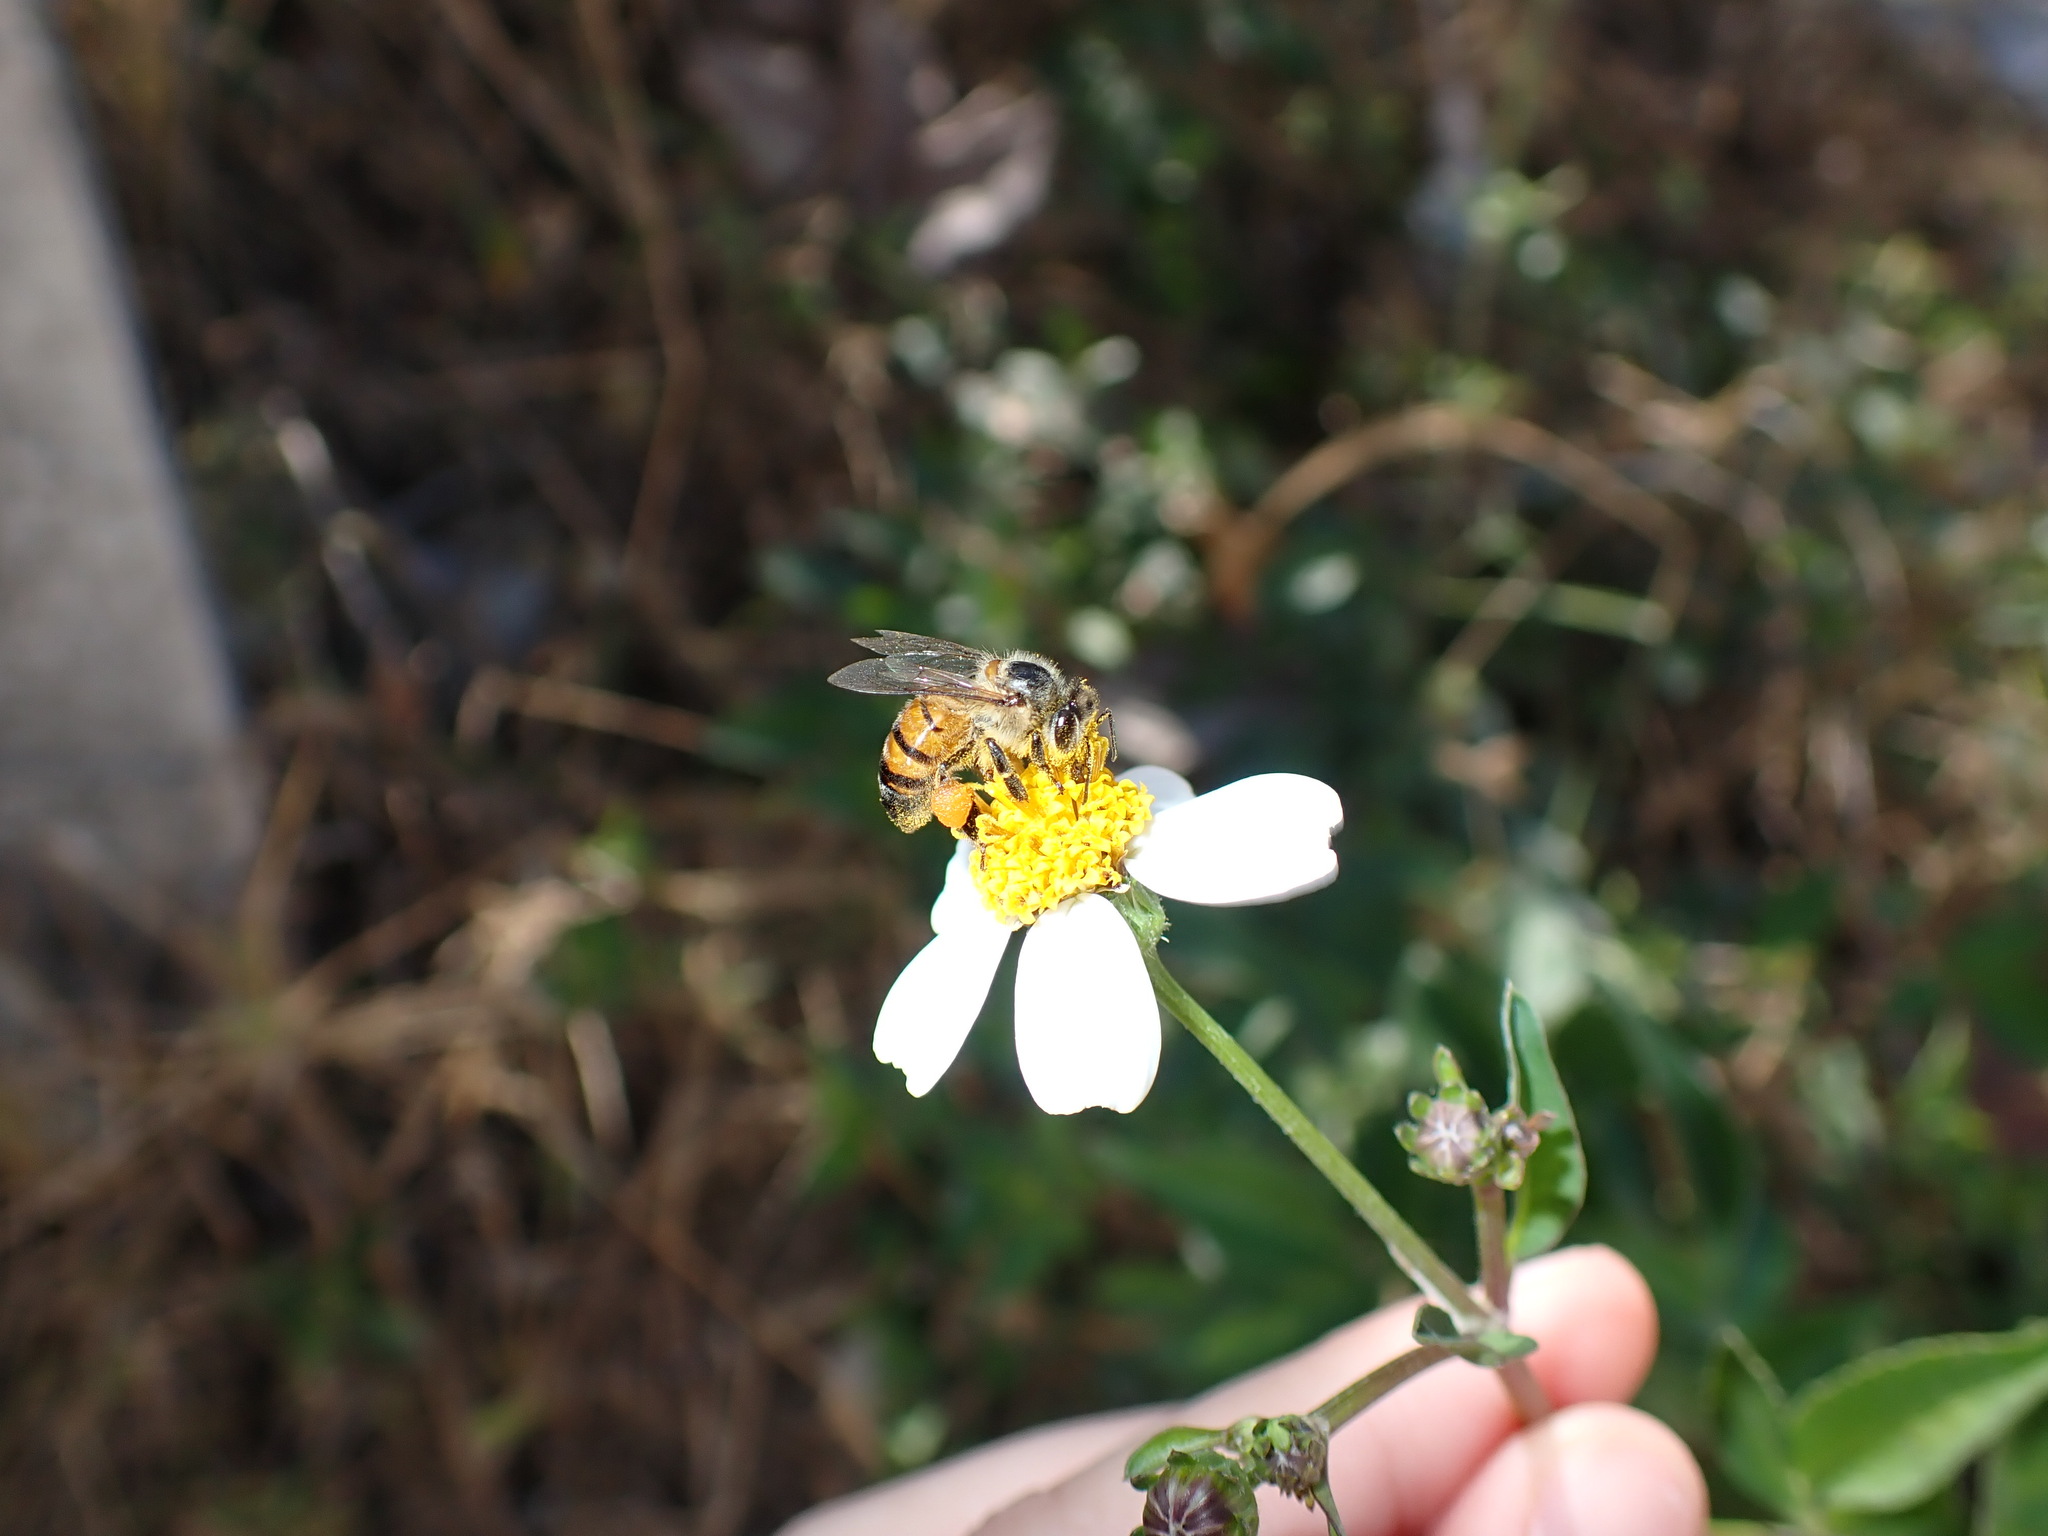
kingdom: Animalia
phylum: Arthropoda
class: Insecta
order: Hymenoptera
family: Apidae
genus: Apis
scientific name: Apis mellifera
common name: Honey bee
